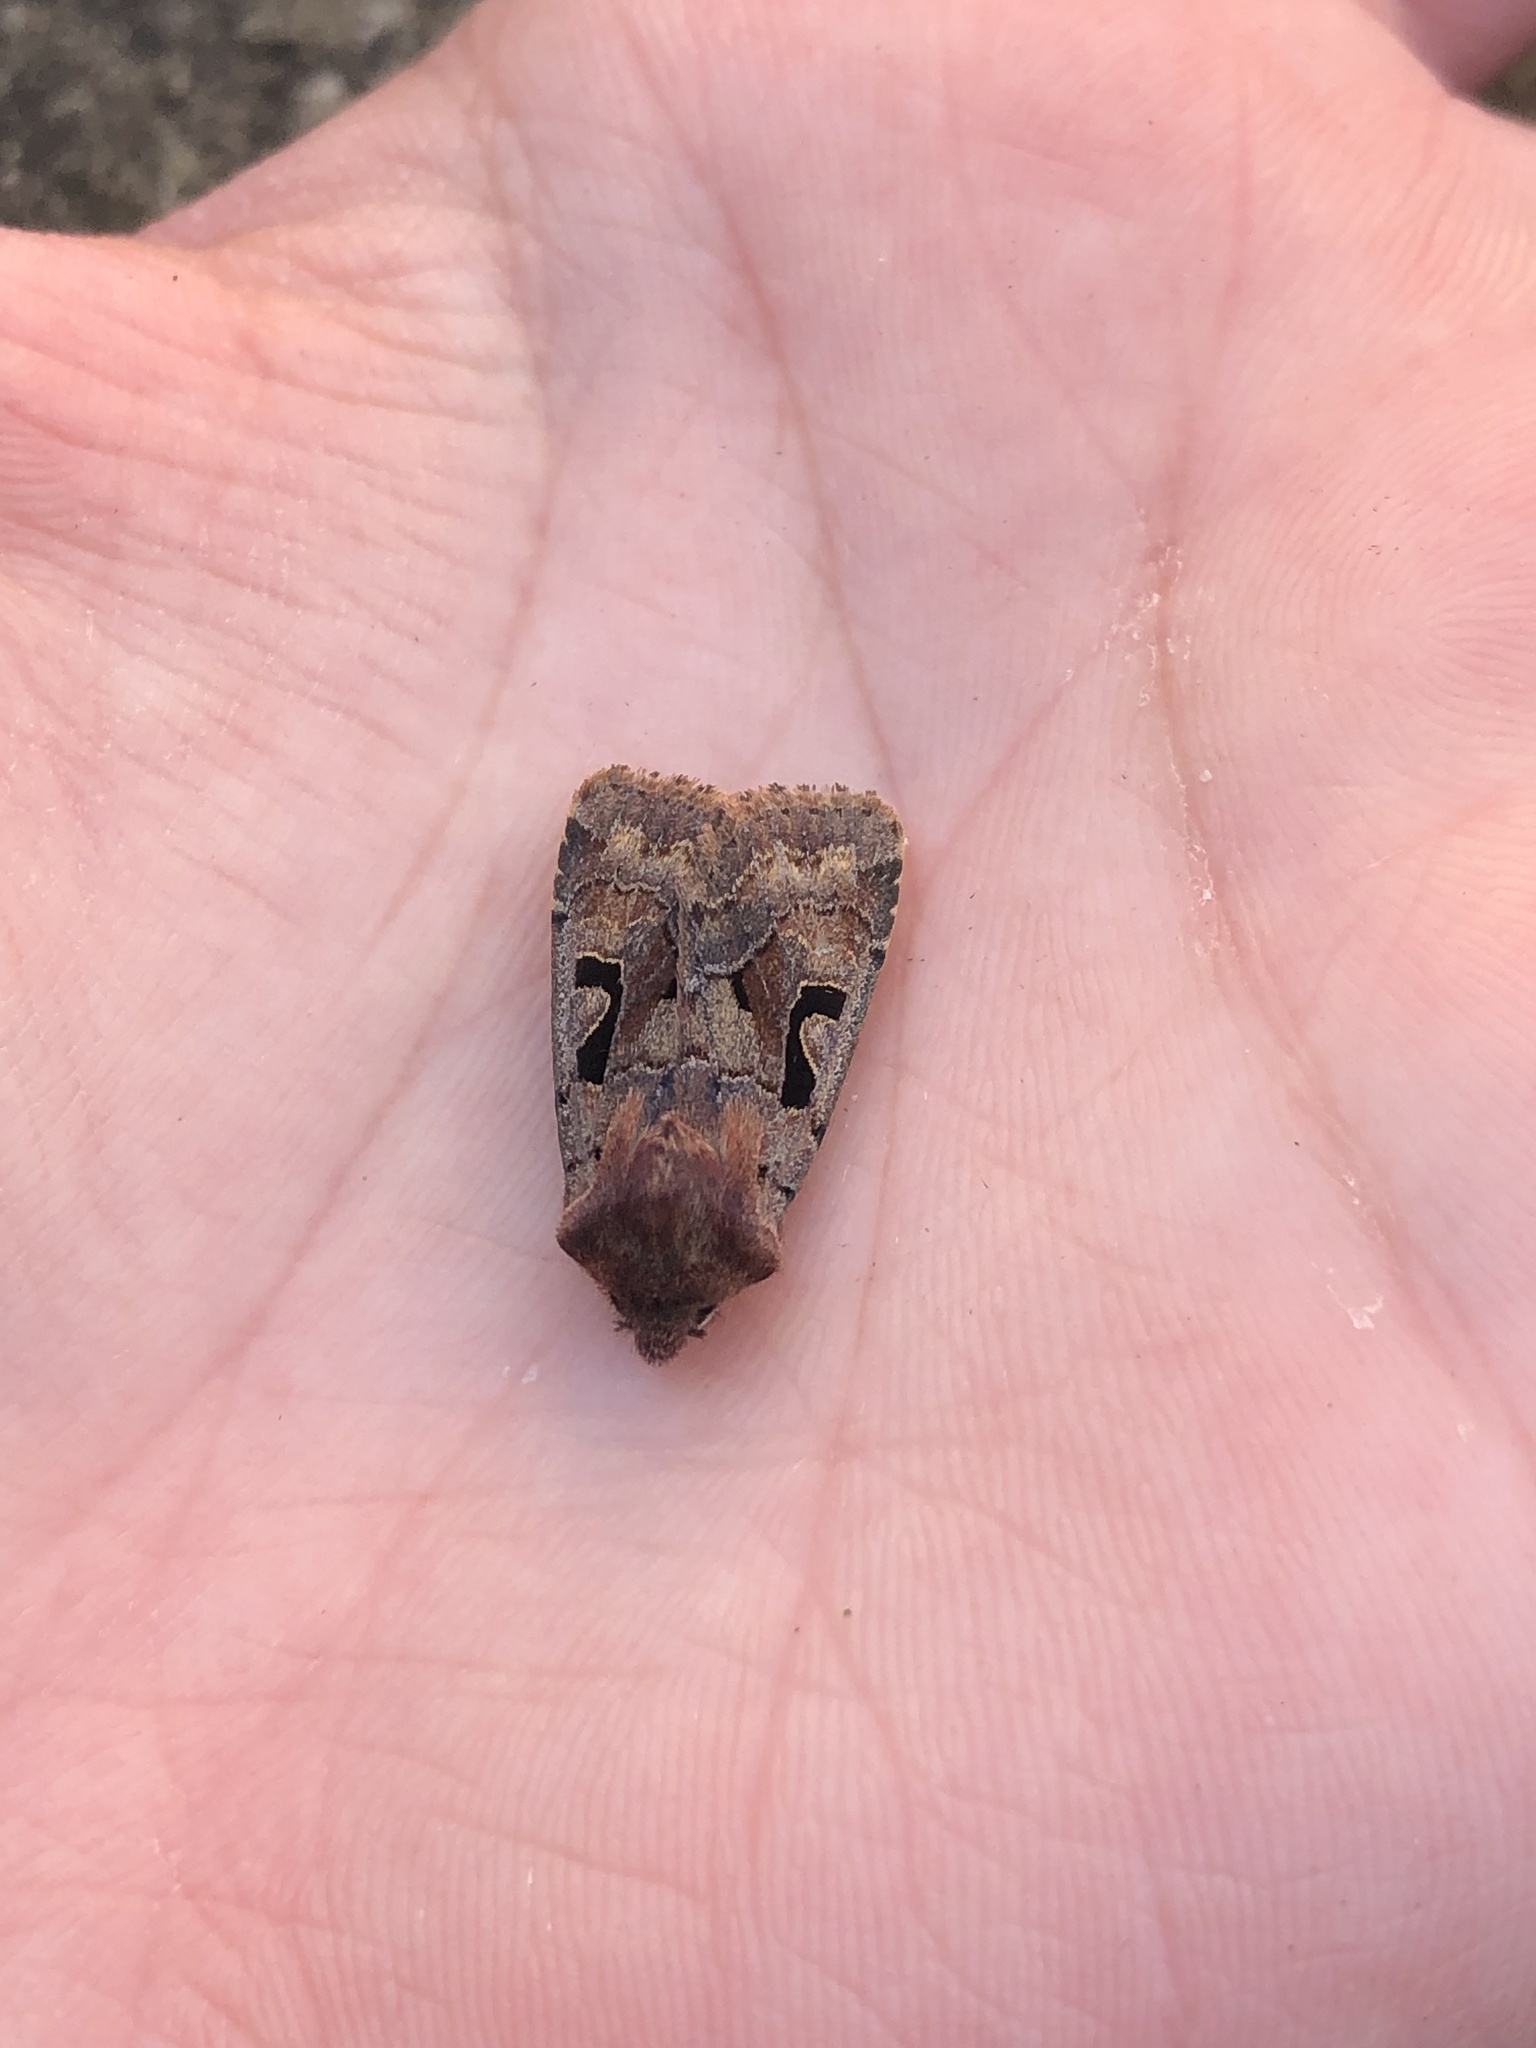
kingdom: Animalia
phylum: Arthropoda
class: Insecta
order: Lepidoptera
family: Noctuidae
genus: Orthosia
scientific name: Orthosia gothica
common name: Hebrew character
